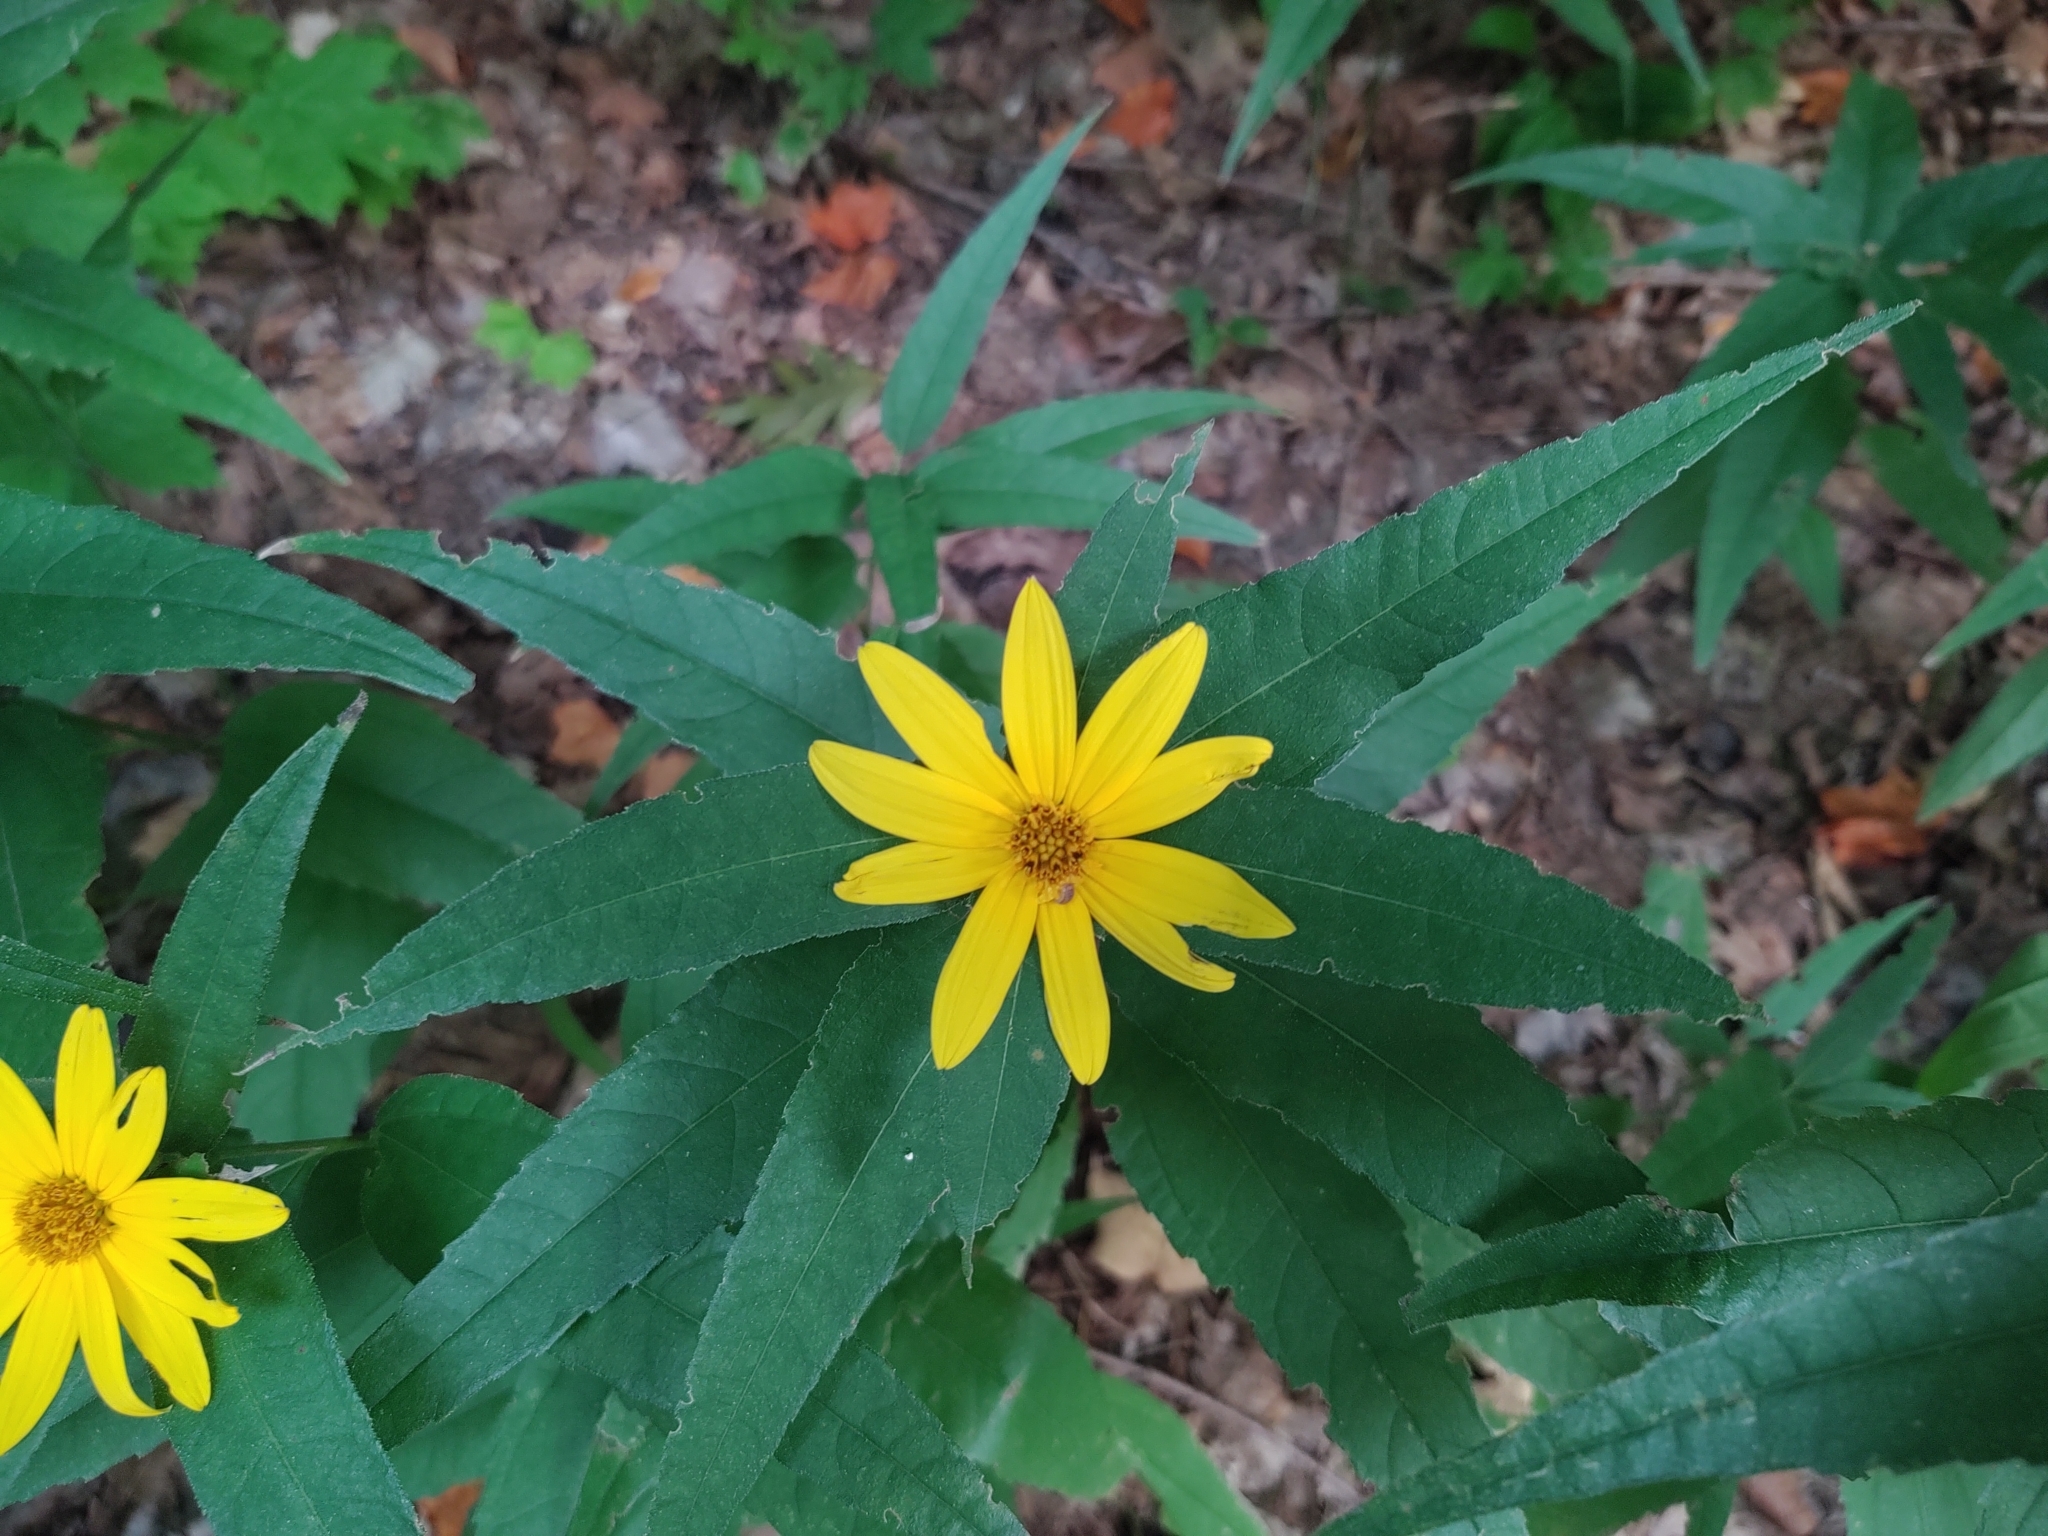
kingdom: Plantae
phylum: Tracheophyta
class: Magnoliopsida
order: Asterales
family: Asteraceae
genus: Helianthus
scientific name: Helianthus divaricatus
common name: Divergent sunflower
